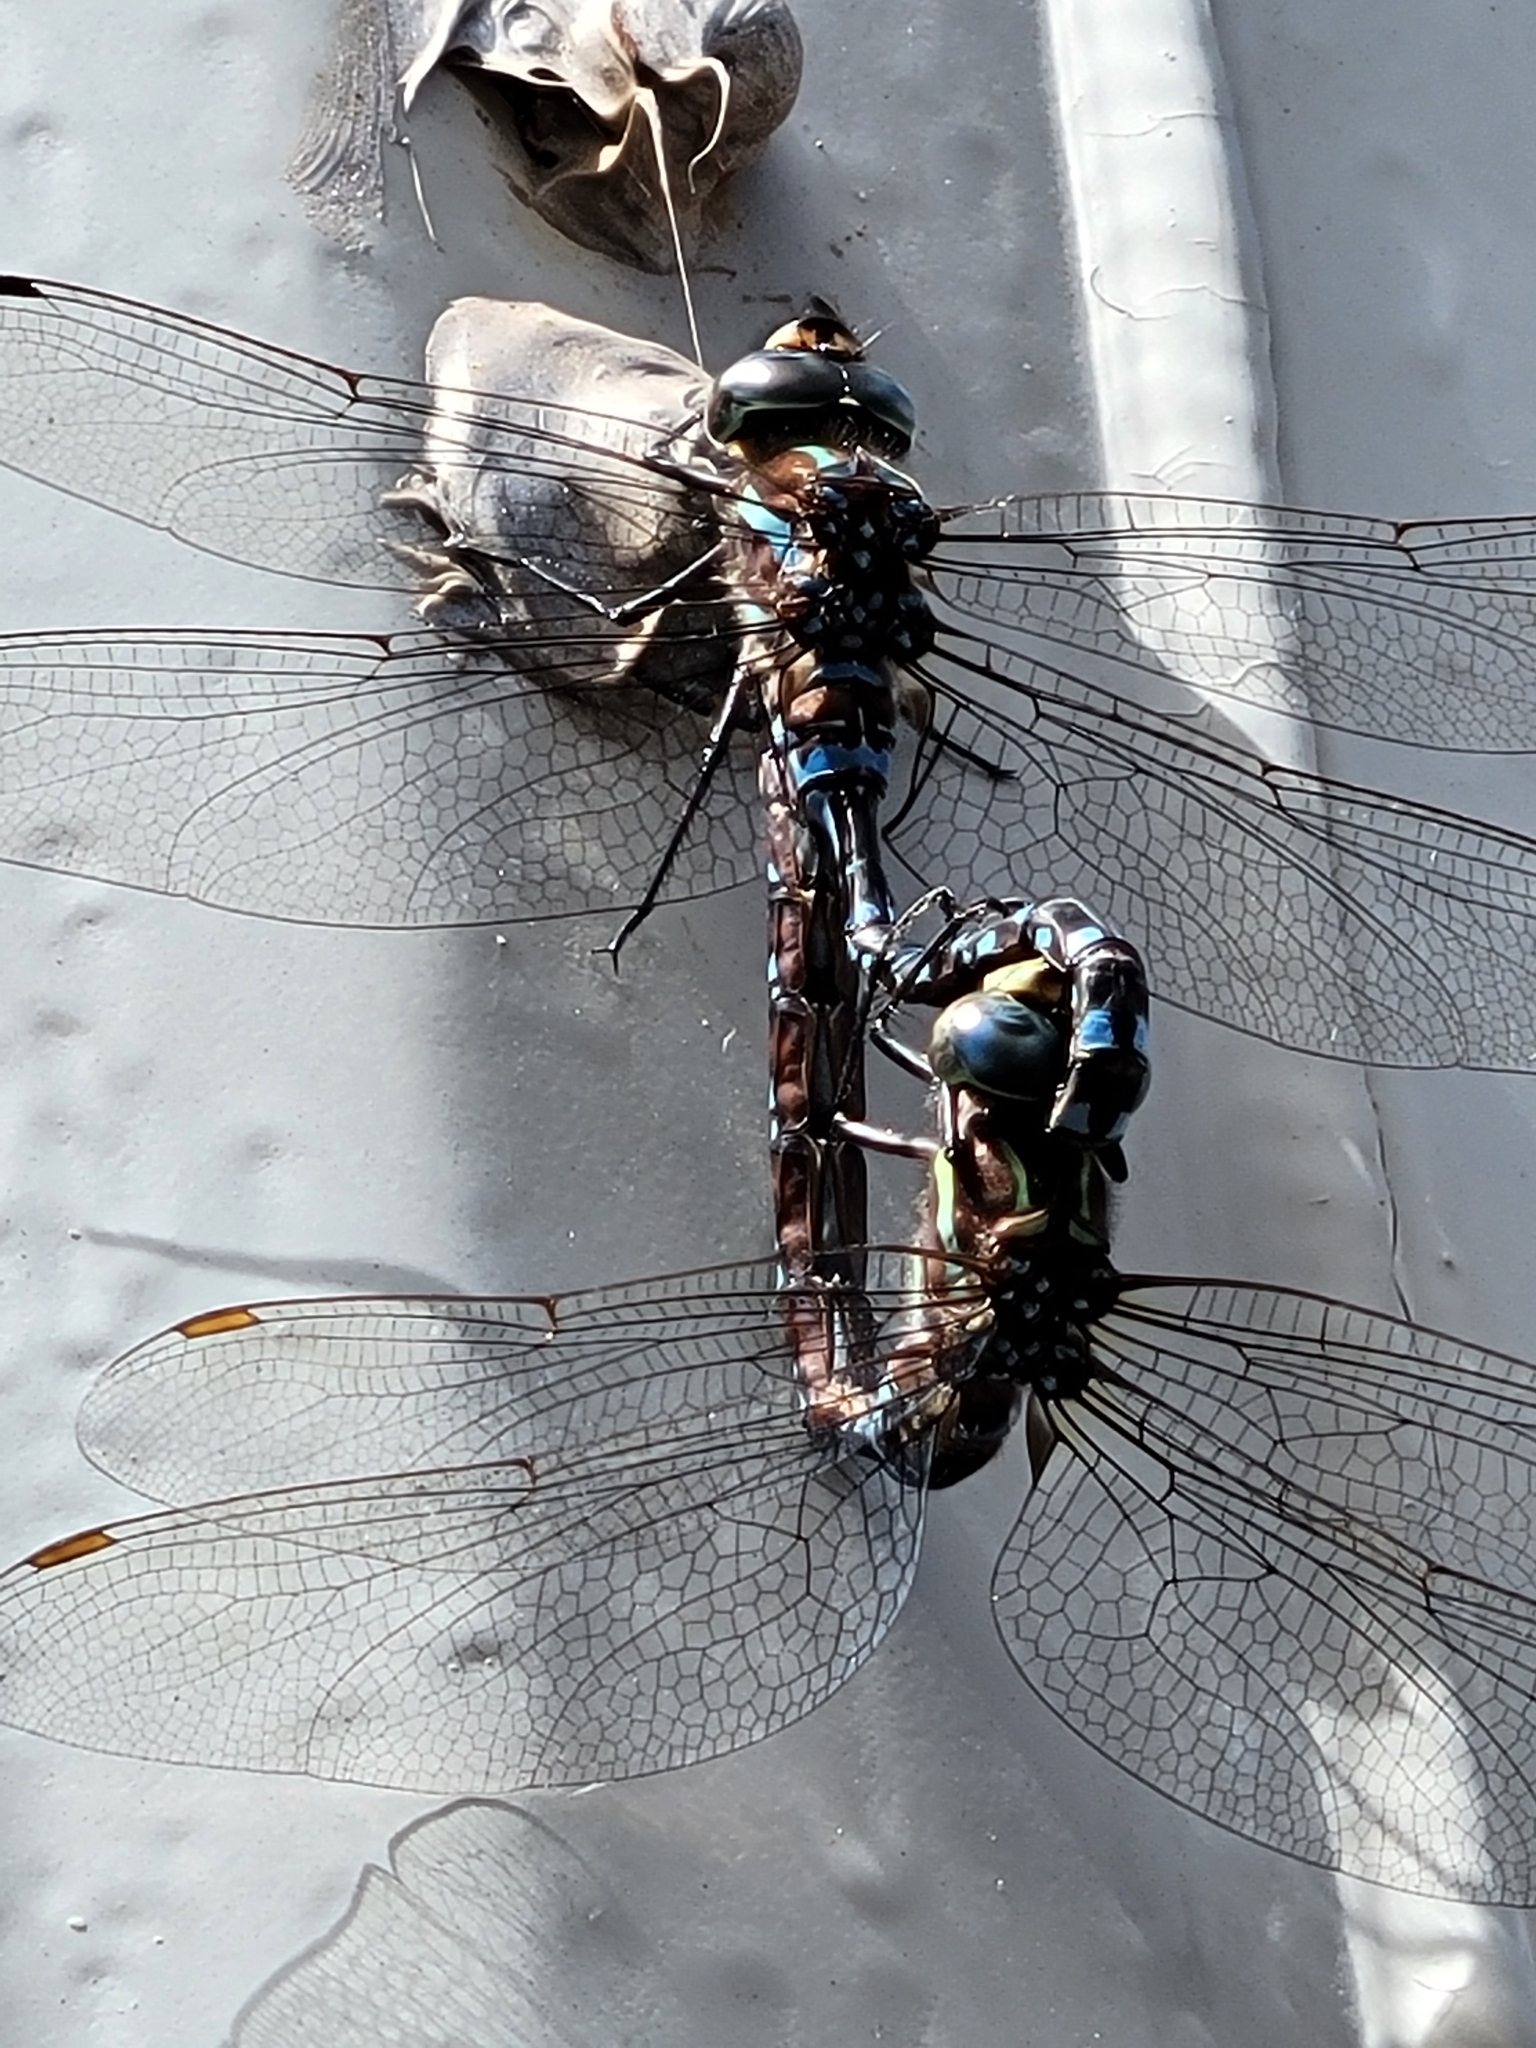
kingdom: Animalia
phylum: Arthropoda
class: Insecta
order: Odonata
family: Aeshnidae
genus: Aeshna
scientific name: Aeshna tuberculifera
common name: Aeschne à tubercules
